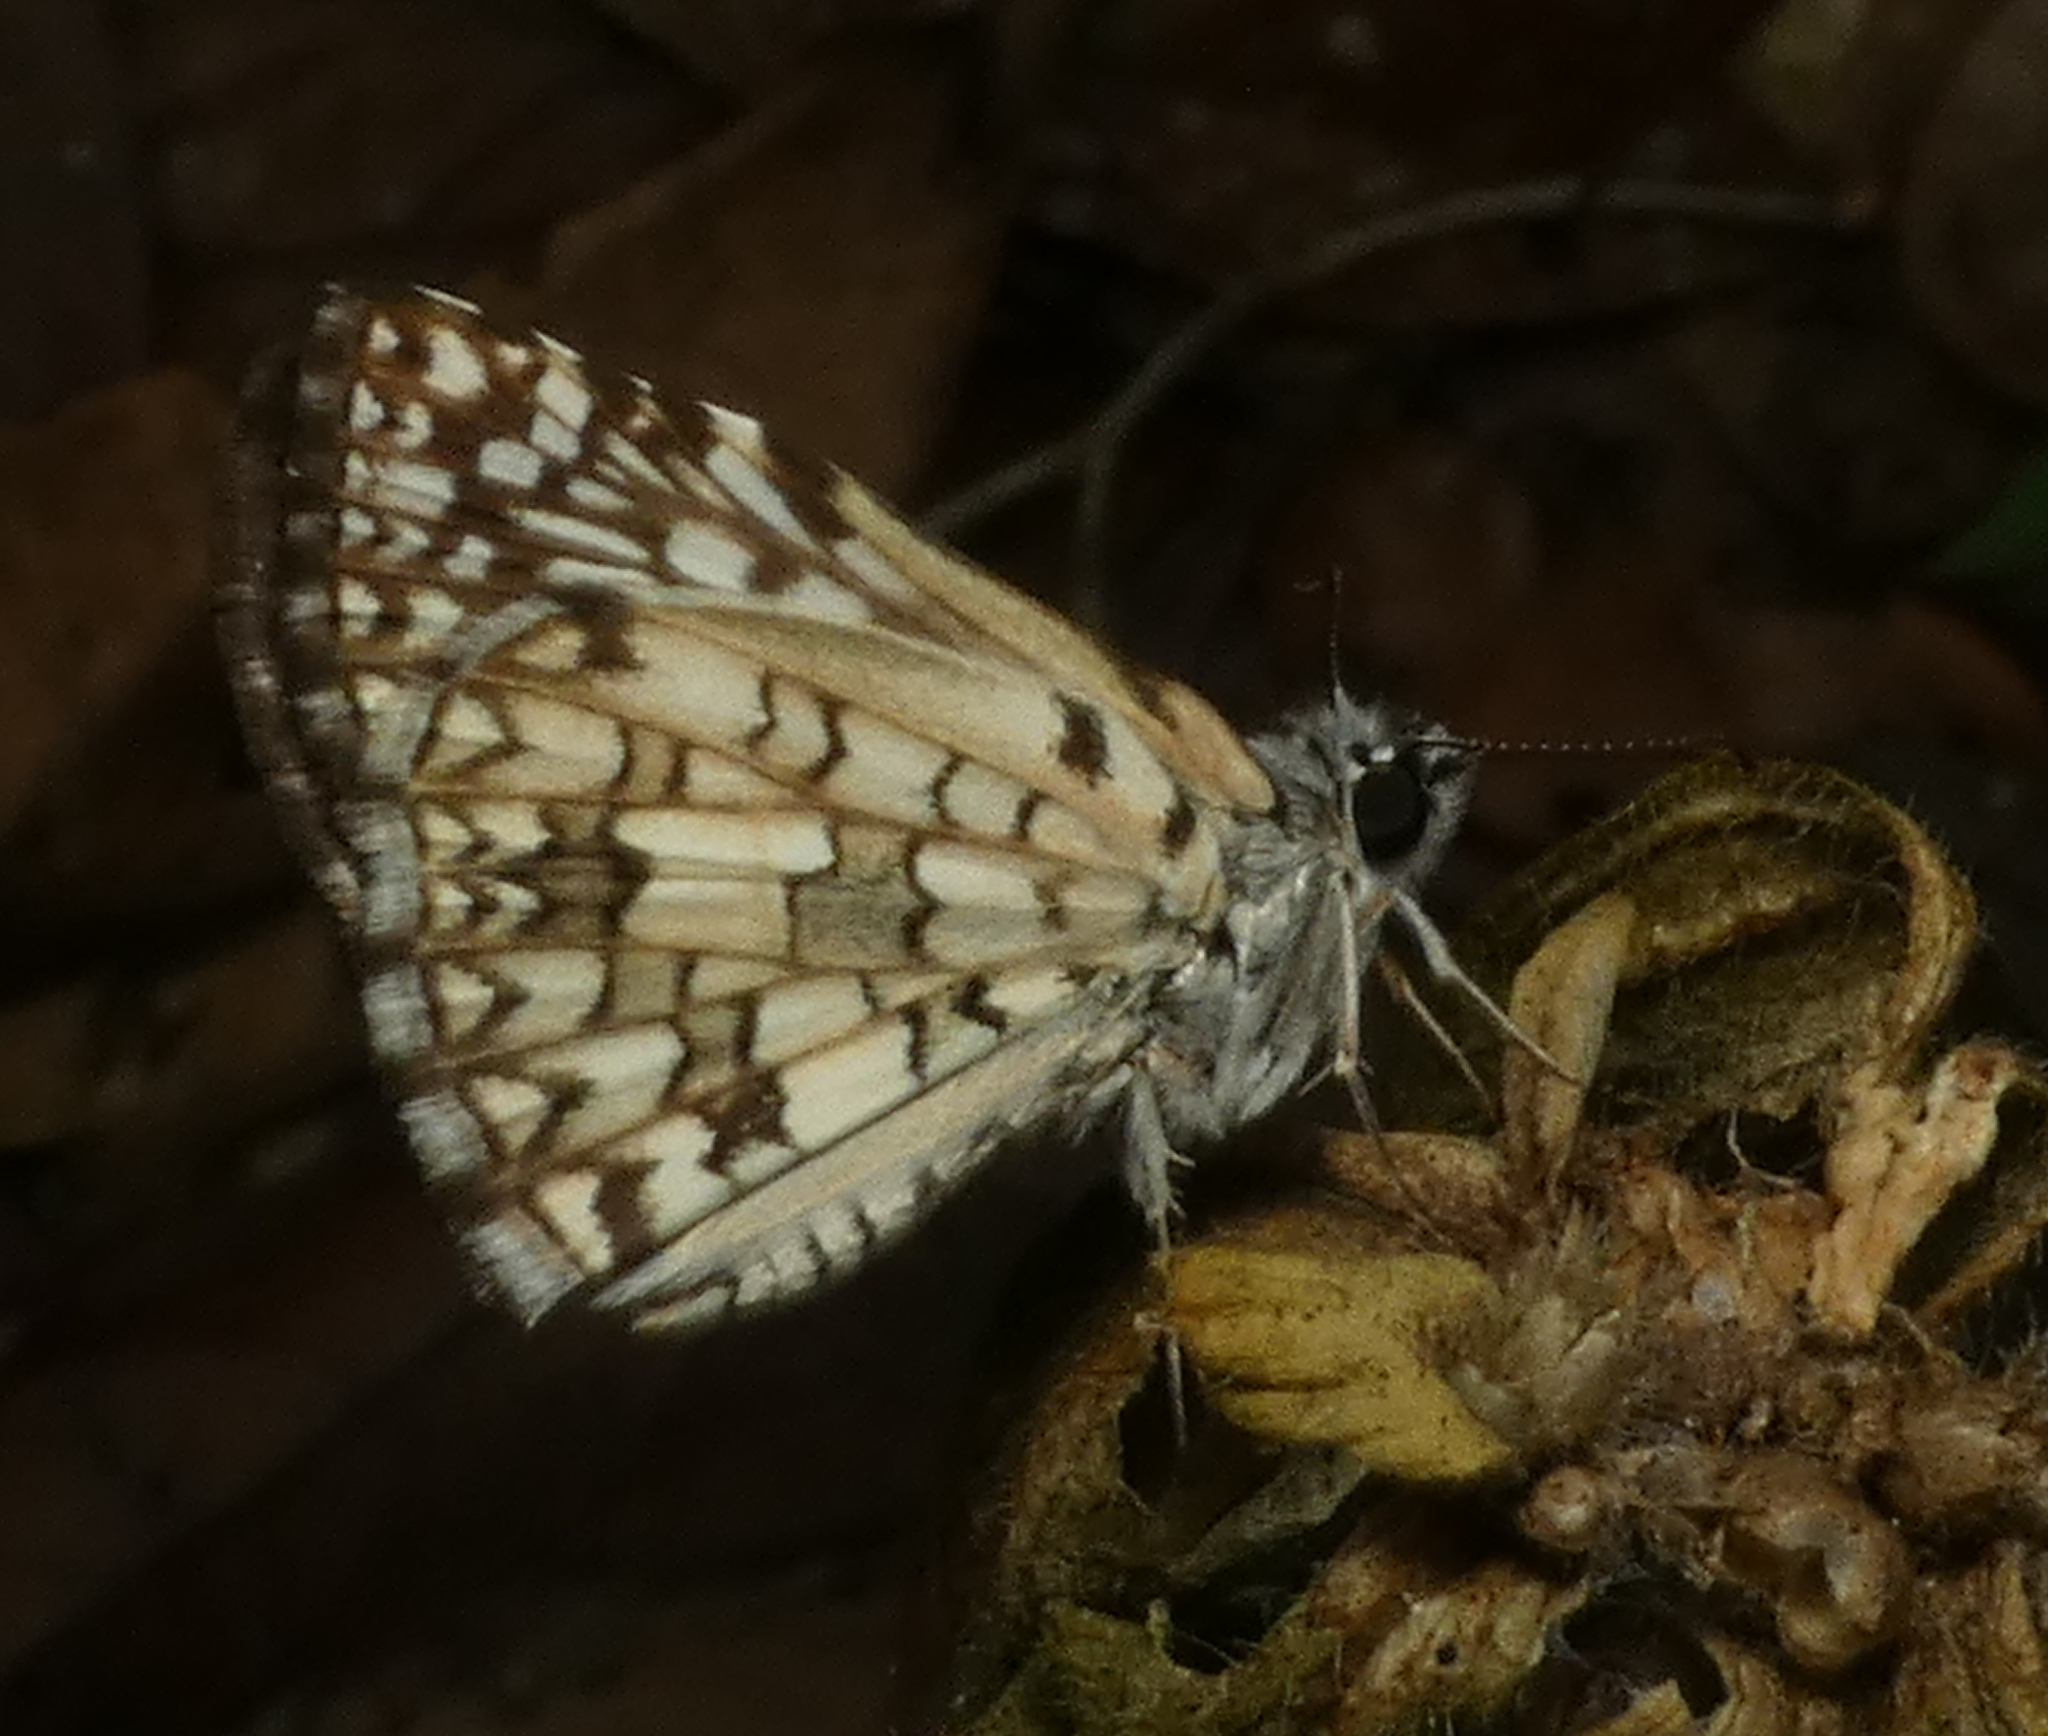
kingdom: Animalia
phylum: Arthropoda
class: Insecta
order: Lepidoptera
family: Hesperiidae
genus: Pyrgus
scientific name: Pyrgus oileus
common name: Tropical checkered-skipper
